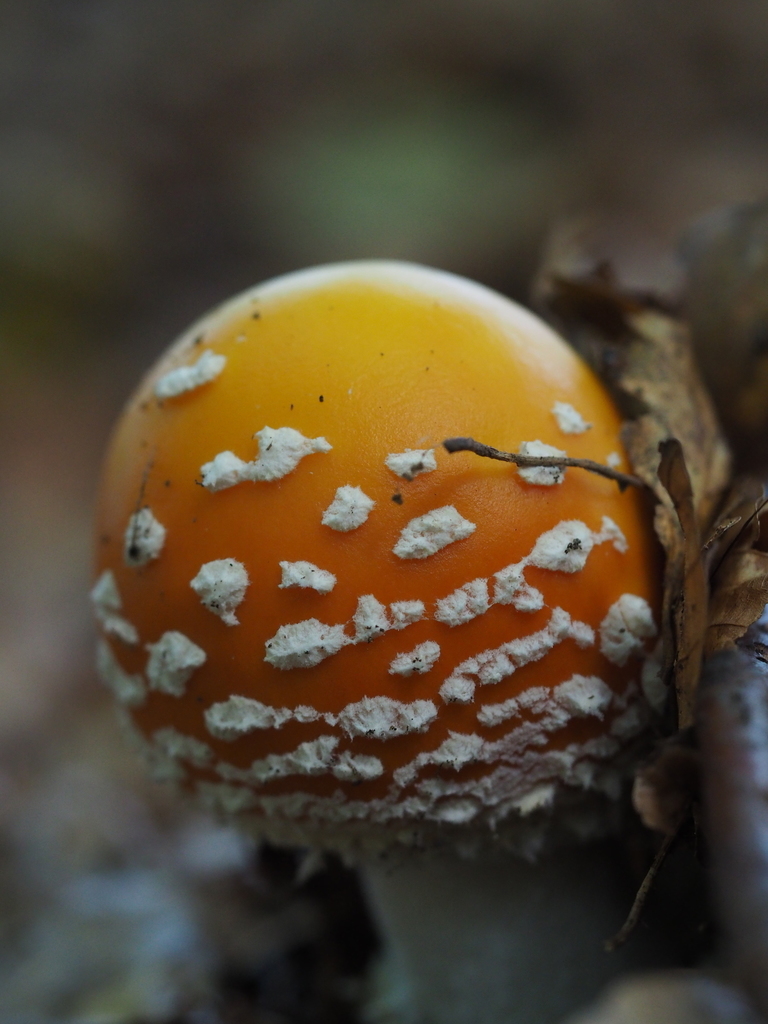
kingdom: Fungi
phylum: Basidiomycota
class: Agaricomycetes
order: Agaricales
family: Amanitaceae
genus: Amanita
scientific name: Amanita muscaria
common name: Fly agaric
